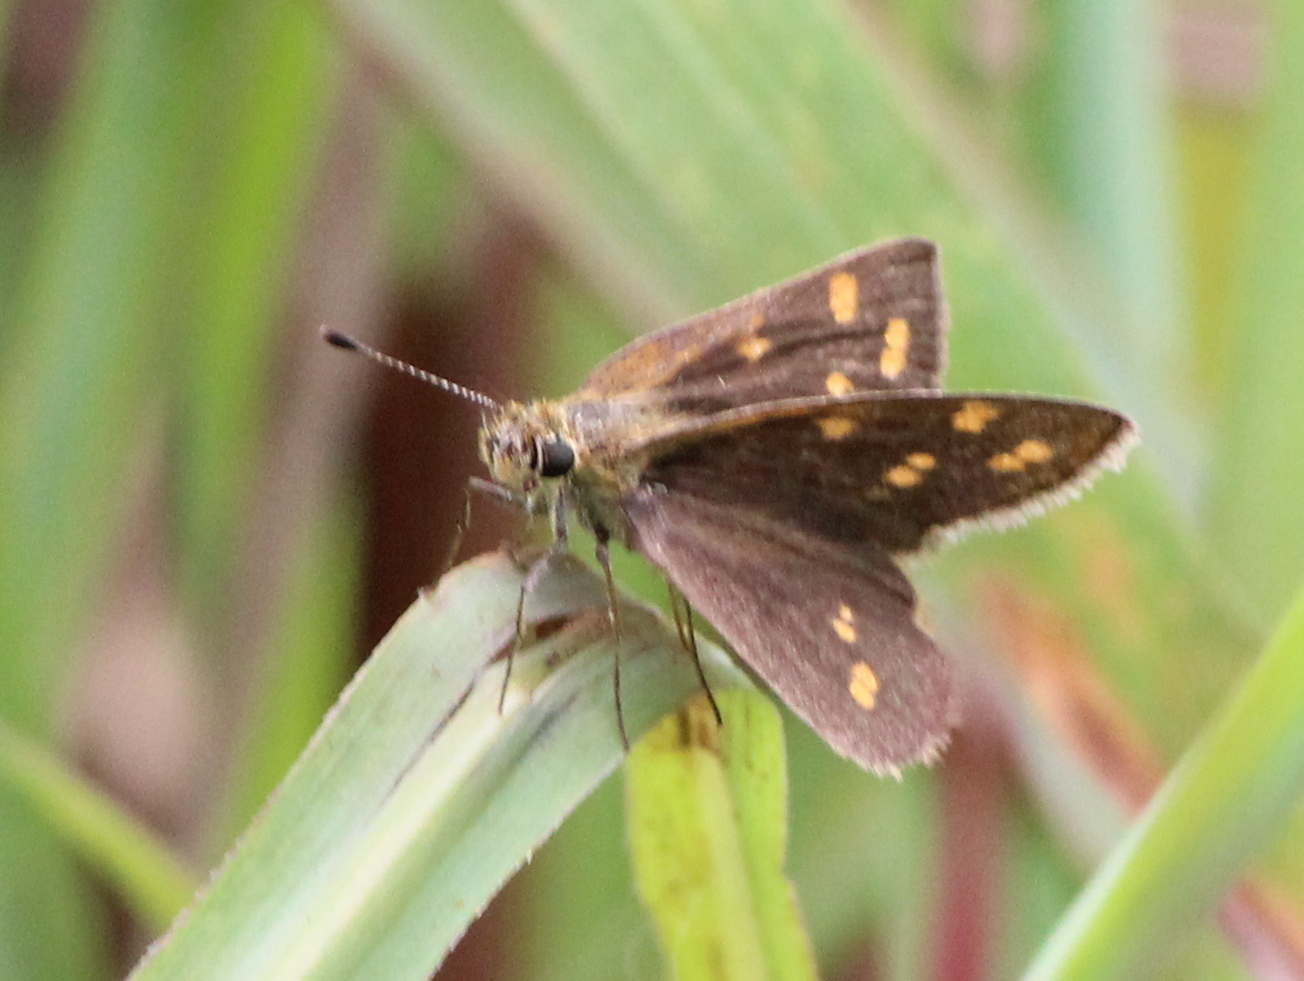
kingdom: Animalia
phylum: Arthropoda
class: Insecta
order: Lepidoptera
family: Hesperiidae
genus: Taractrocera
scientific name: Taractrocera ceramas
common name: Tamil grass dart
